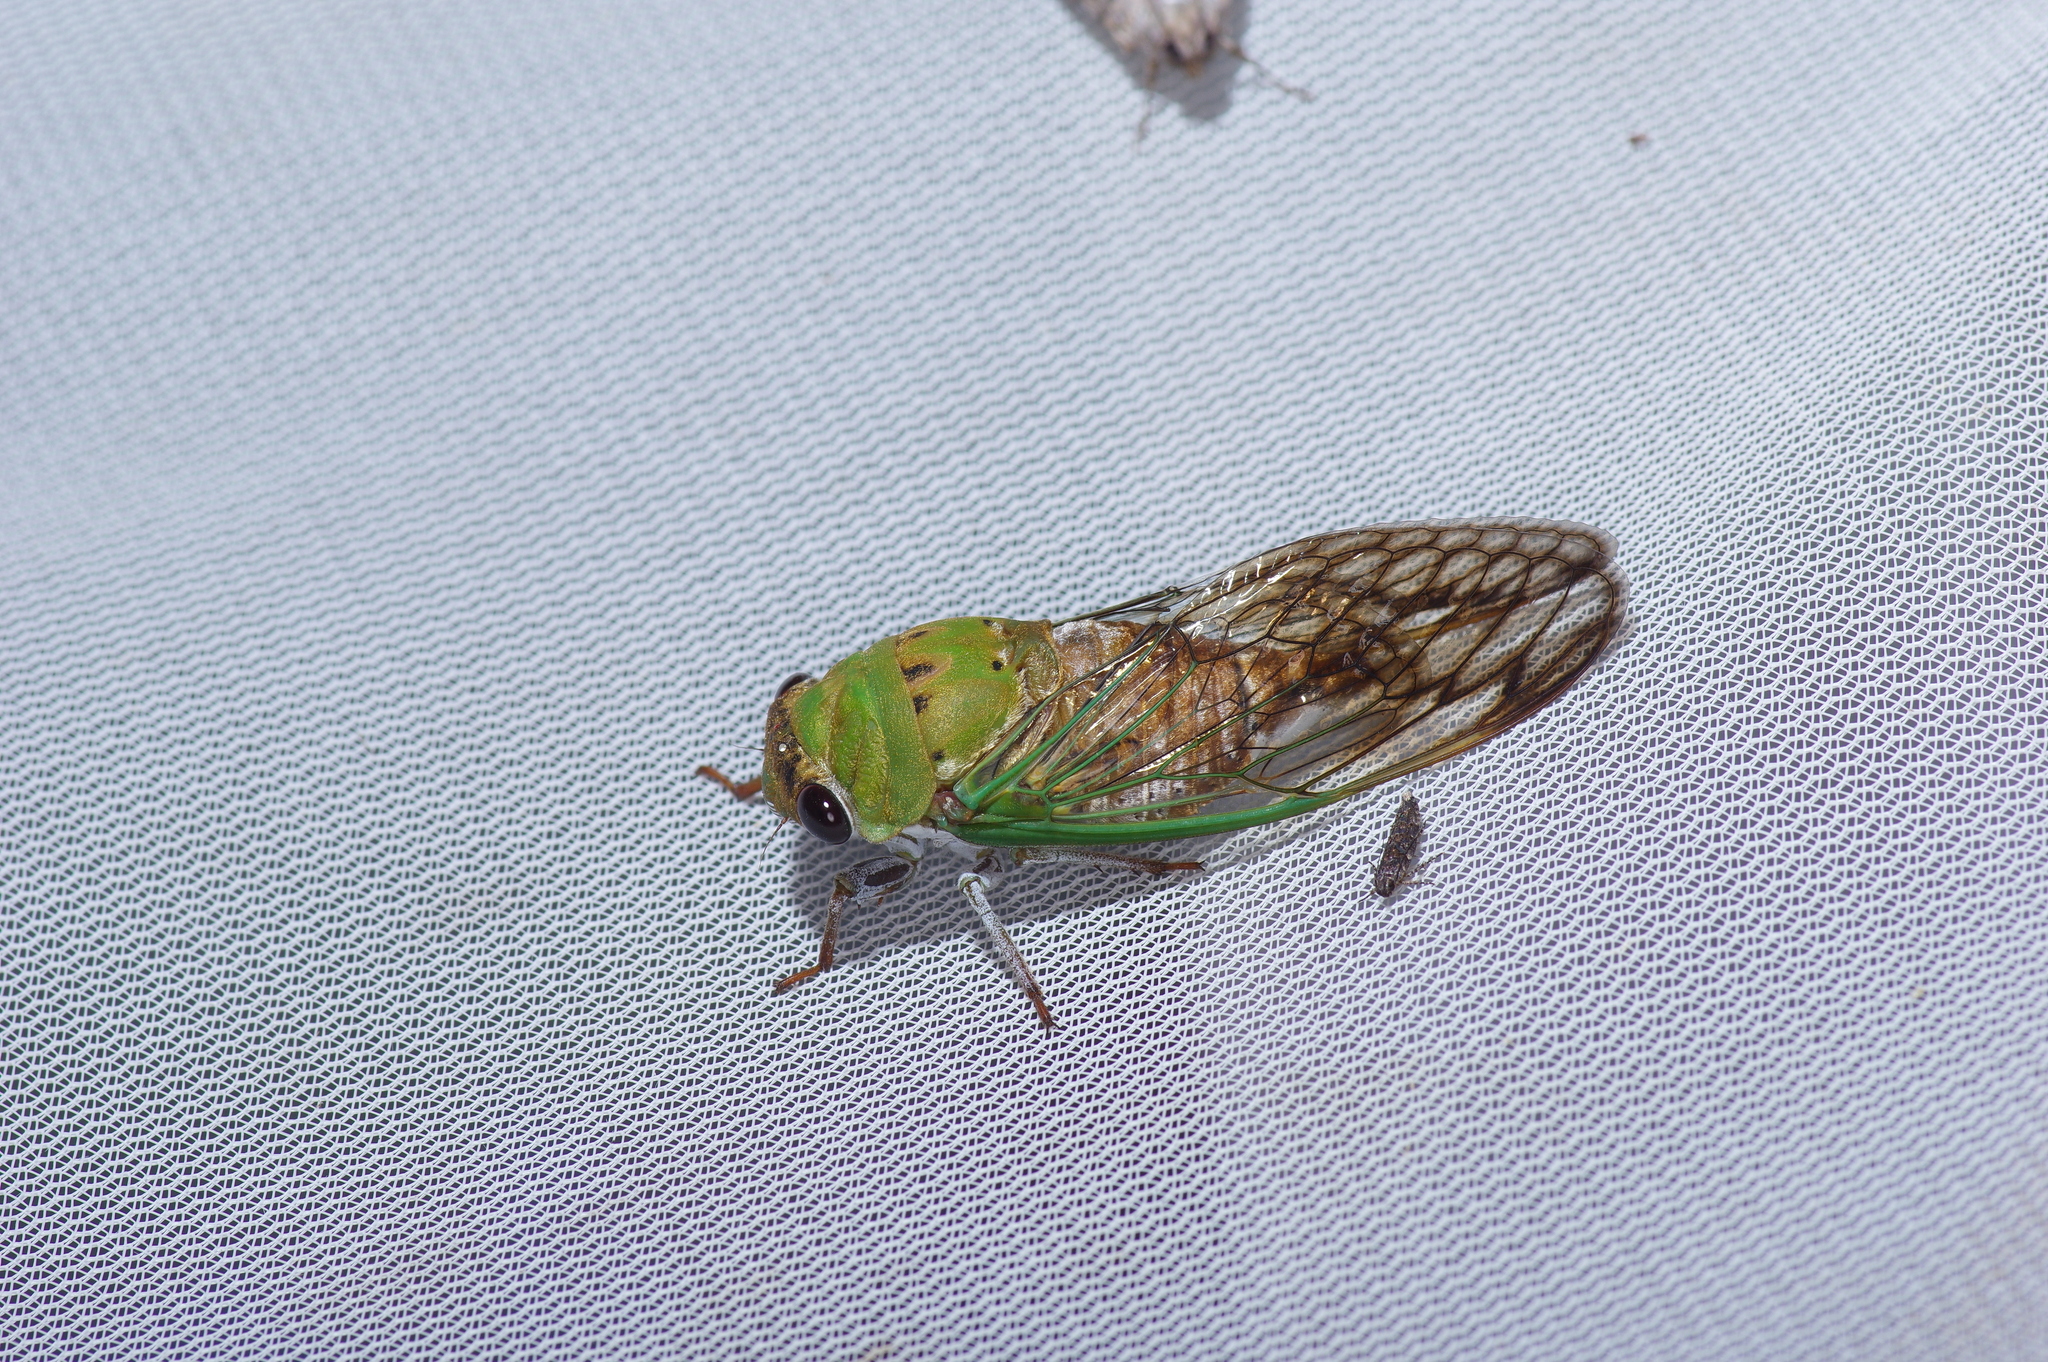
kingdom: Animalia
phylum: Arthropoda
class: Insecta
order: Hemiptera
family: Cicadidae
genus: Neotibicen
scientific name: Neotibicen superbus
